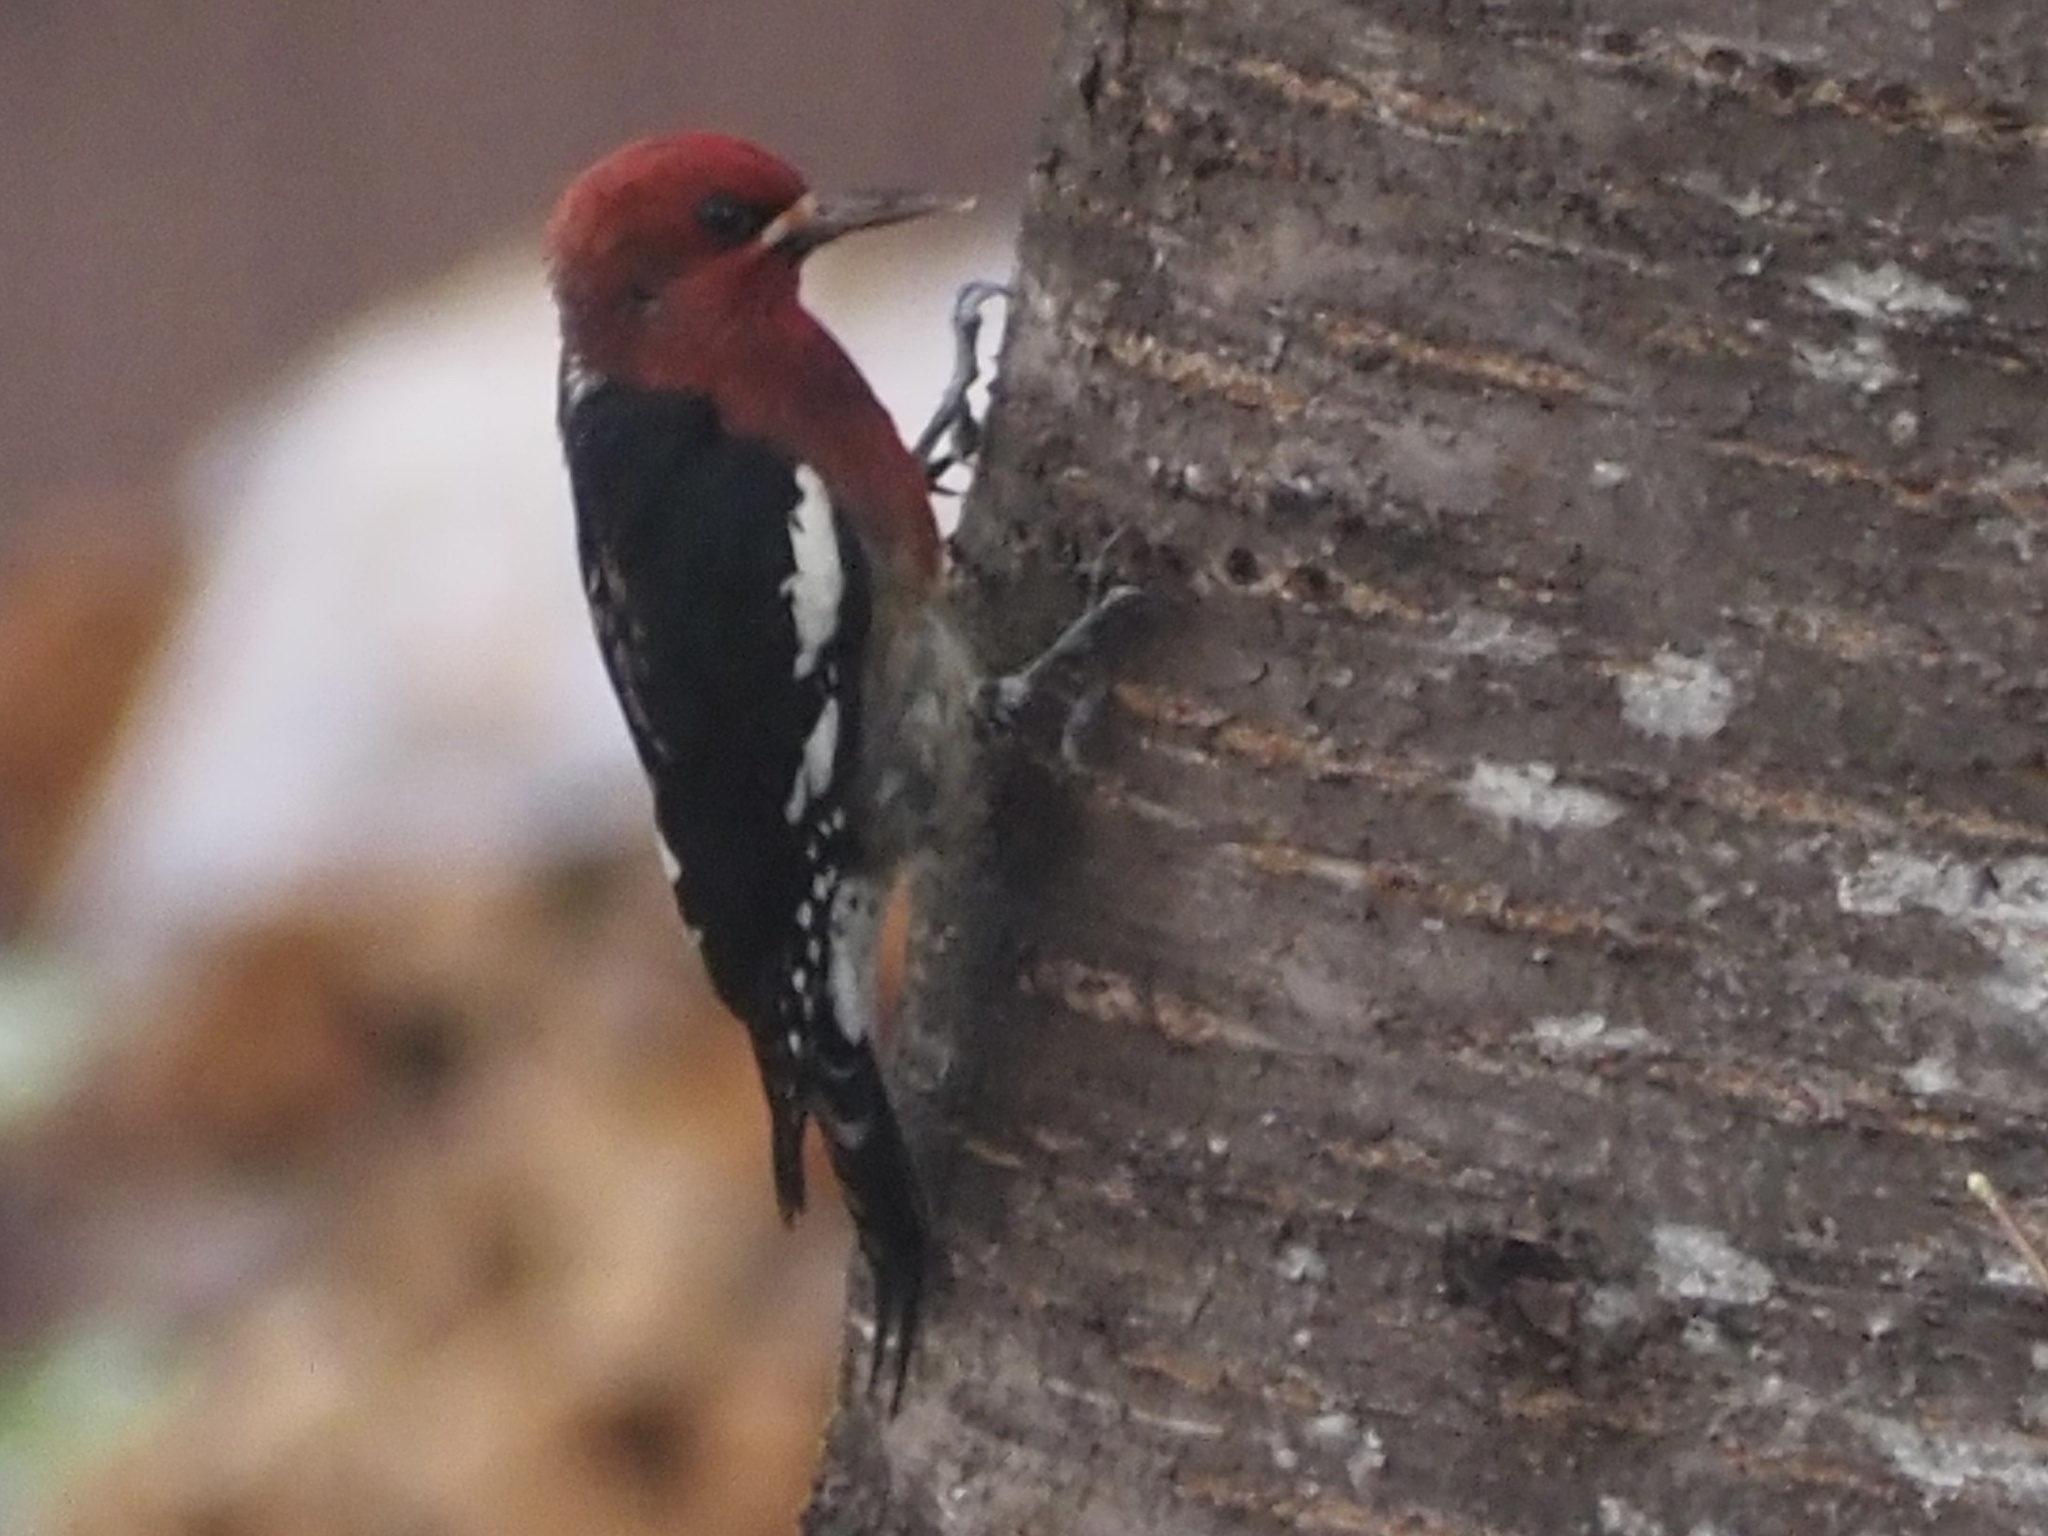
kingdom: Animalia
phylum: Chordata
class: Aves
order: Piciformes
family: Picidae
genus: Sphyrapicus
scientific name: Sphyrapicus ruber
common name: Red-breasted sapsucker
